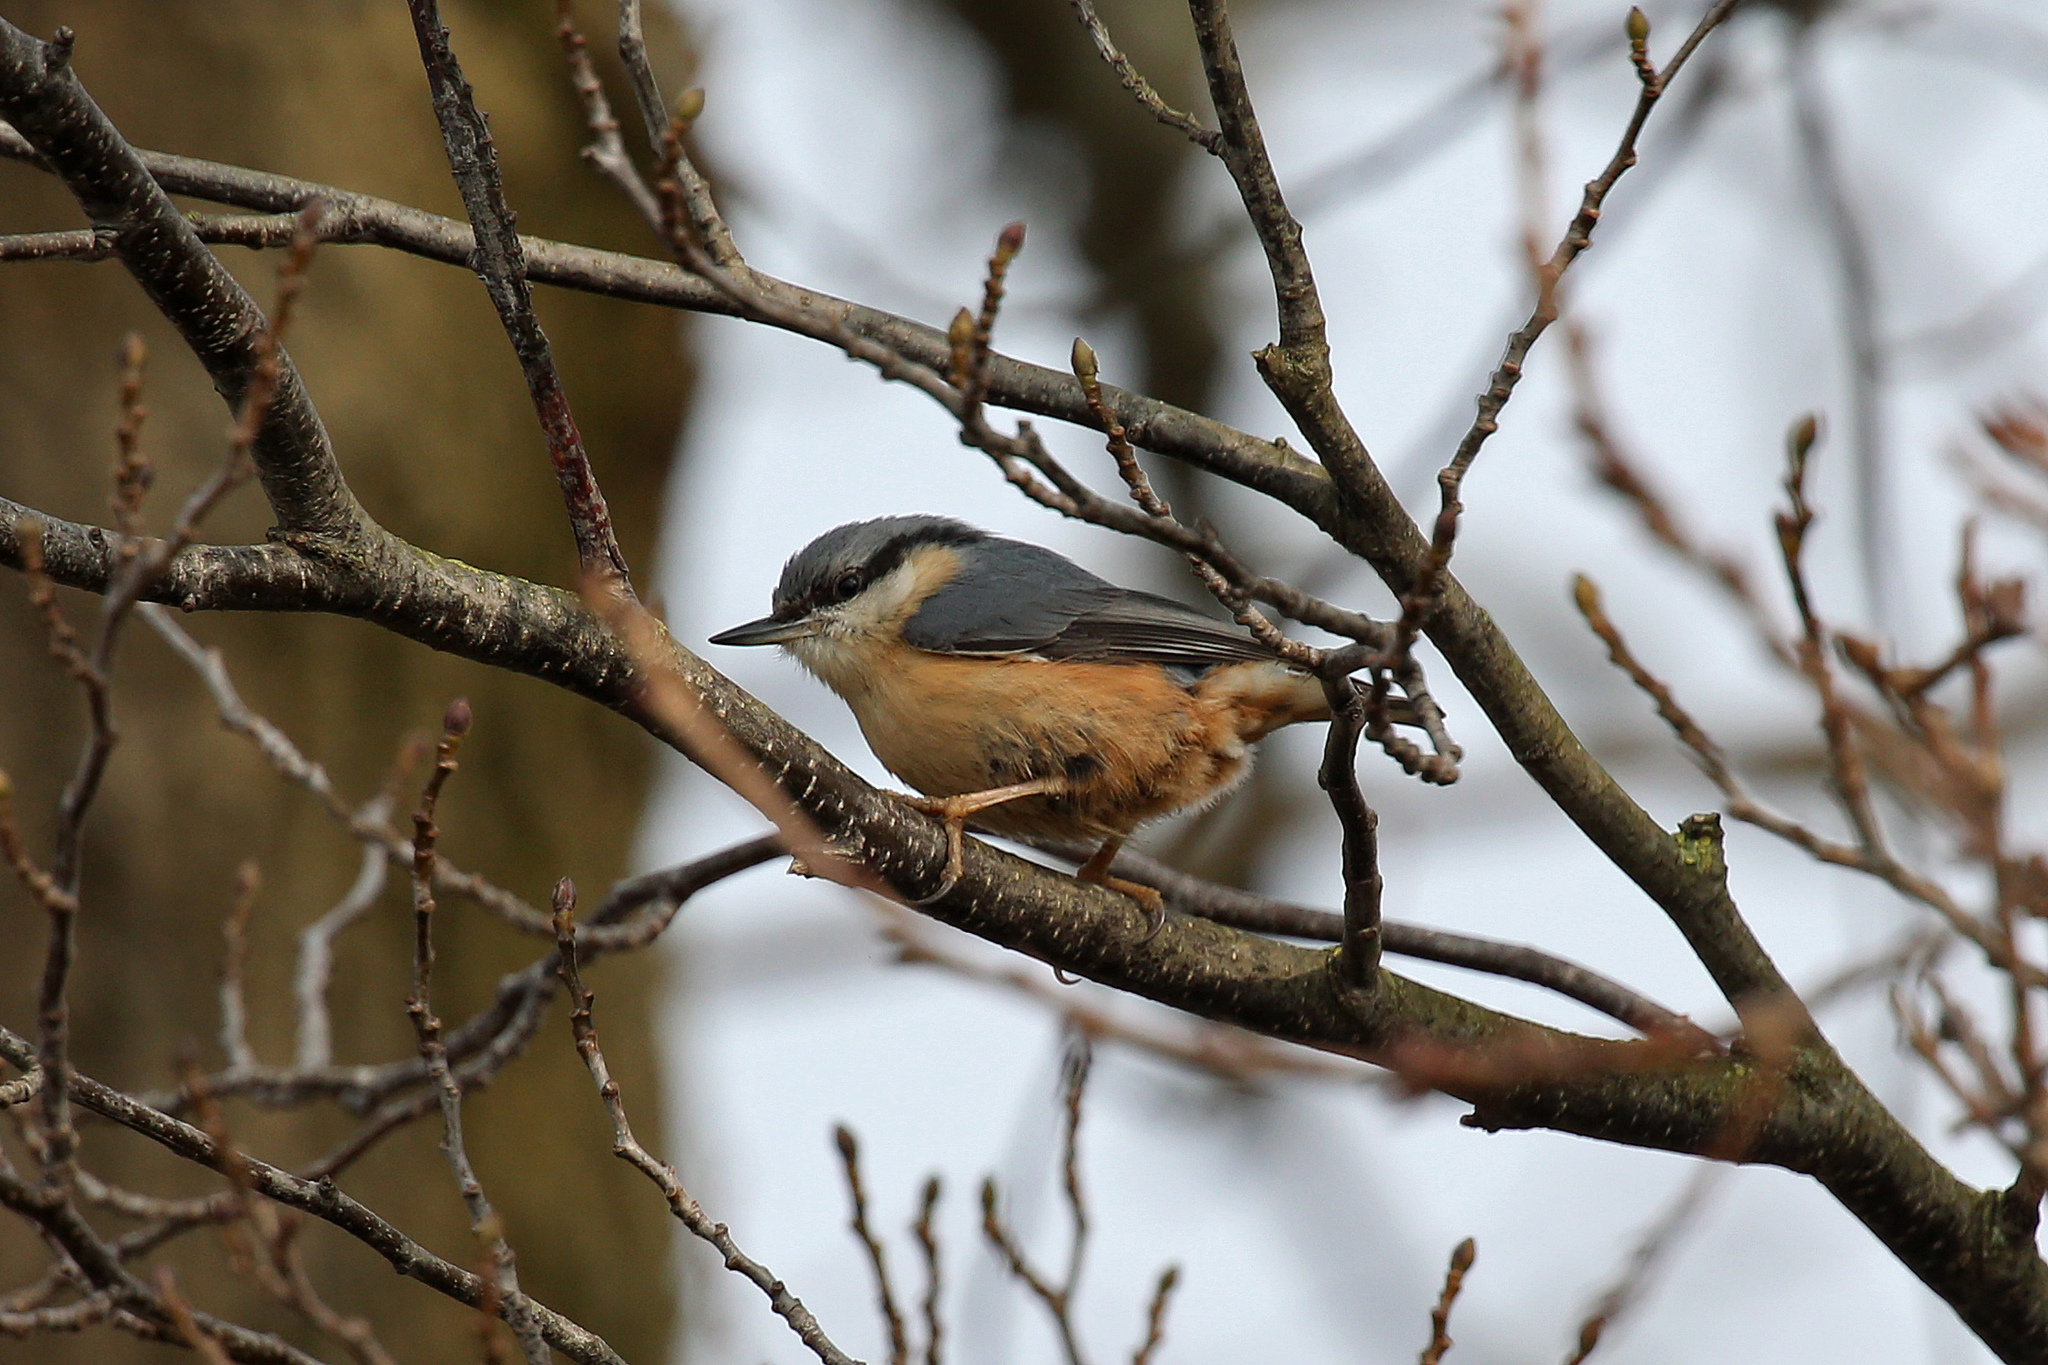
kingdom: Animalia
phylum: Chordata
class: Aves
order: Passeriformes
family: Sittidae
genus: Sitta
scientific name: Sitta europaea
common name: Eurasian nuthatch
